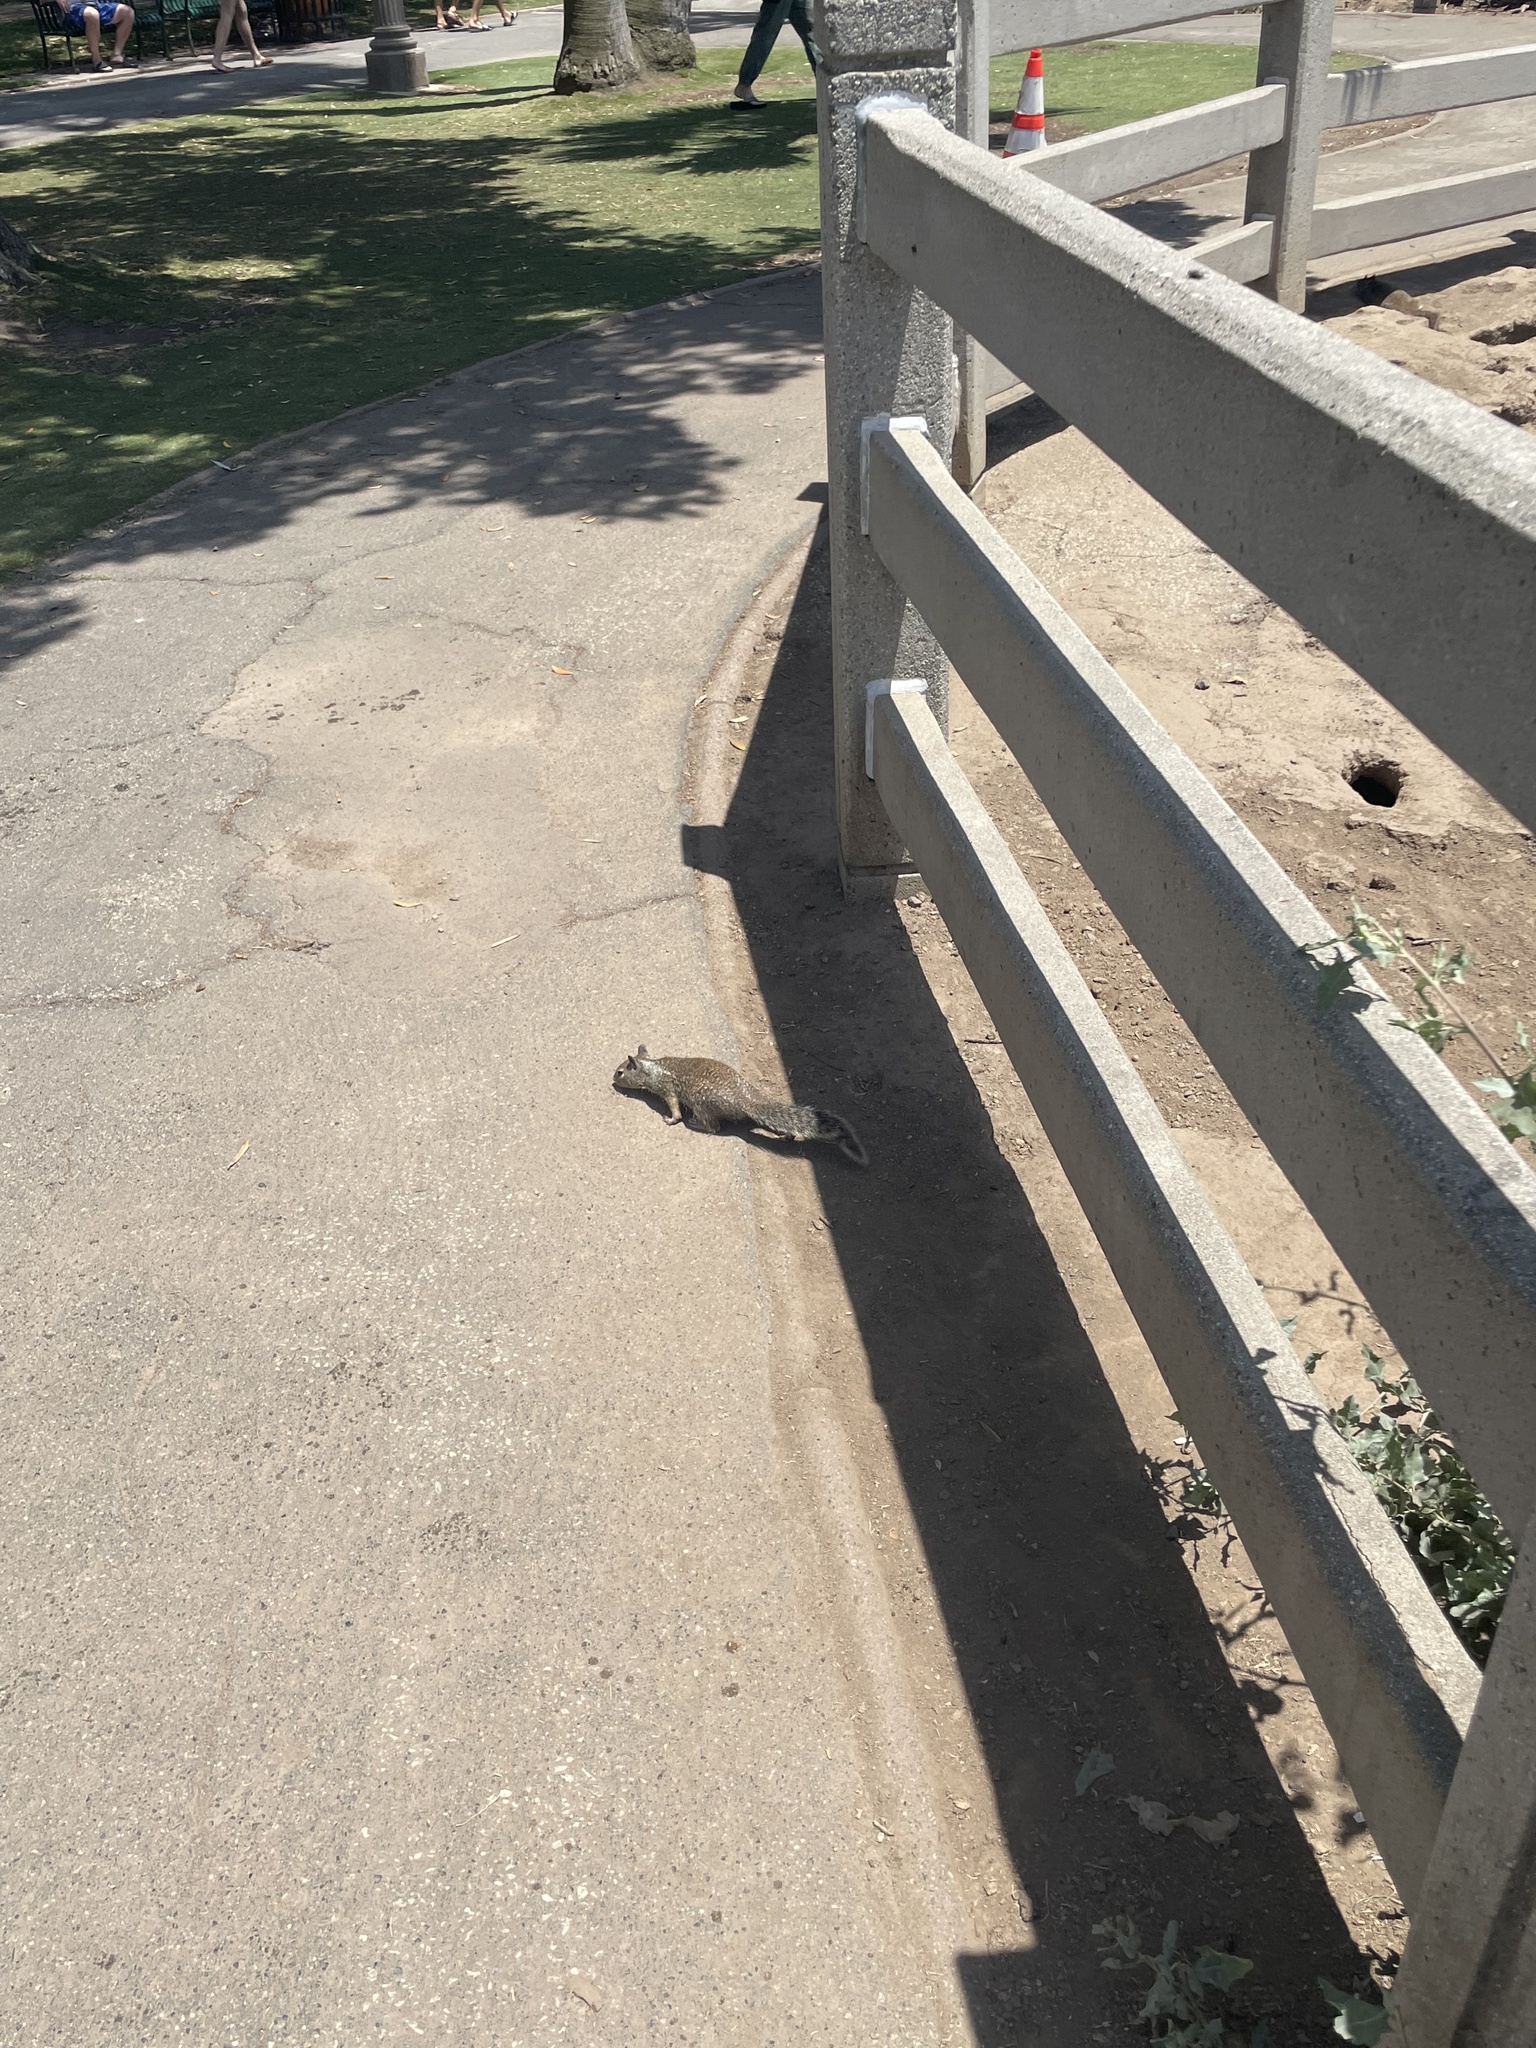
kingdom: Animalia
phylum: Chordata
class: Mammalia
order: Rodentia
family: Sciuridae
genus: Otospermophilus
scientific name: Otospermophilus beecheyi
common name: California ground squirrel
